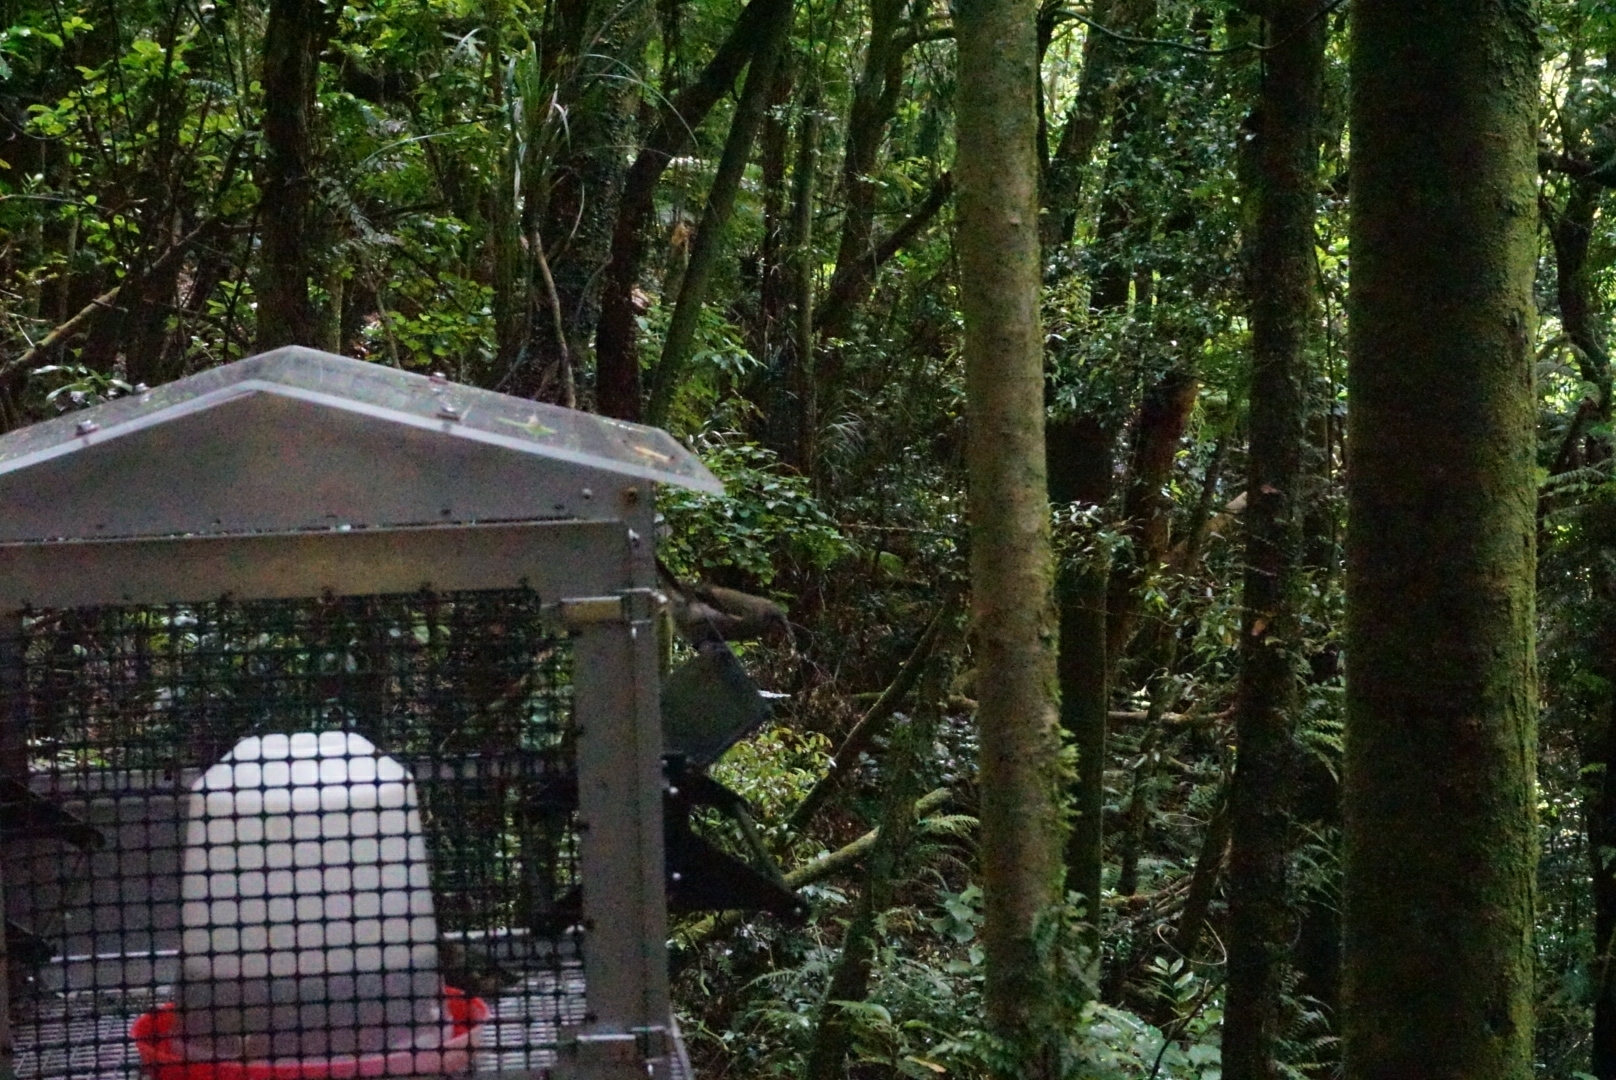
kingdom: Animalia
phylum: Chordata
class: Aves
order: Passeriformes
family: Meliphagidae
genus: Anthornis
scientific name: Anthornis melanura
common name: New zealand bellbird
